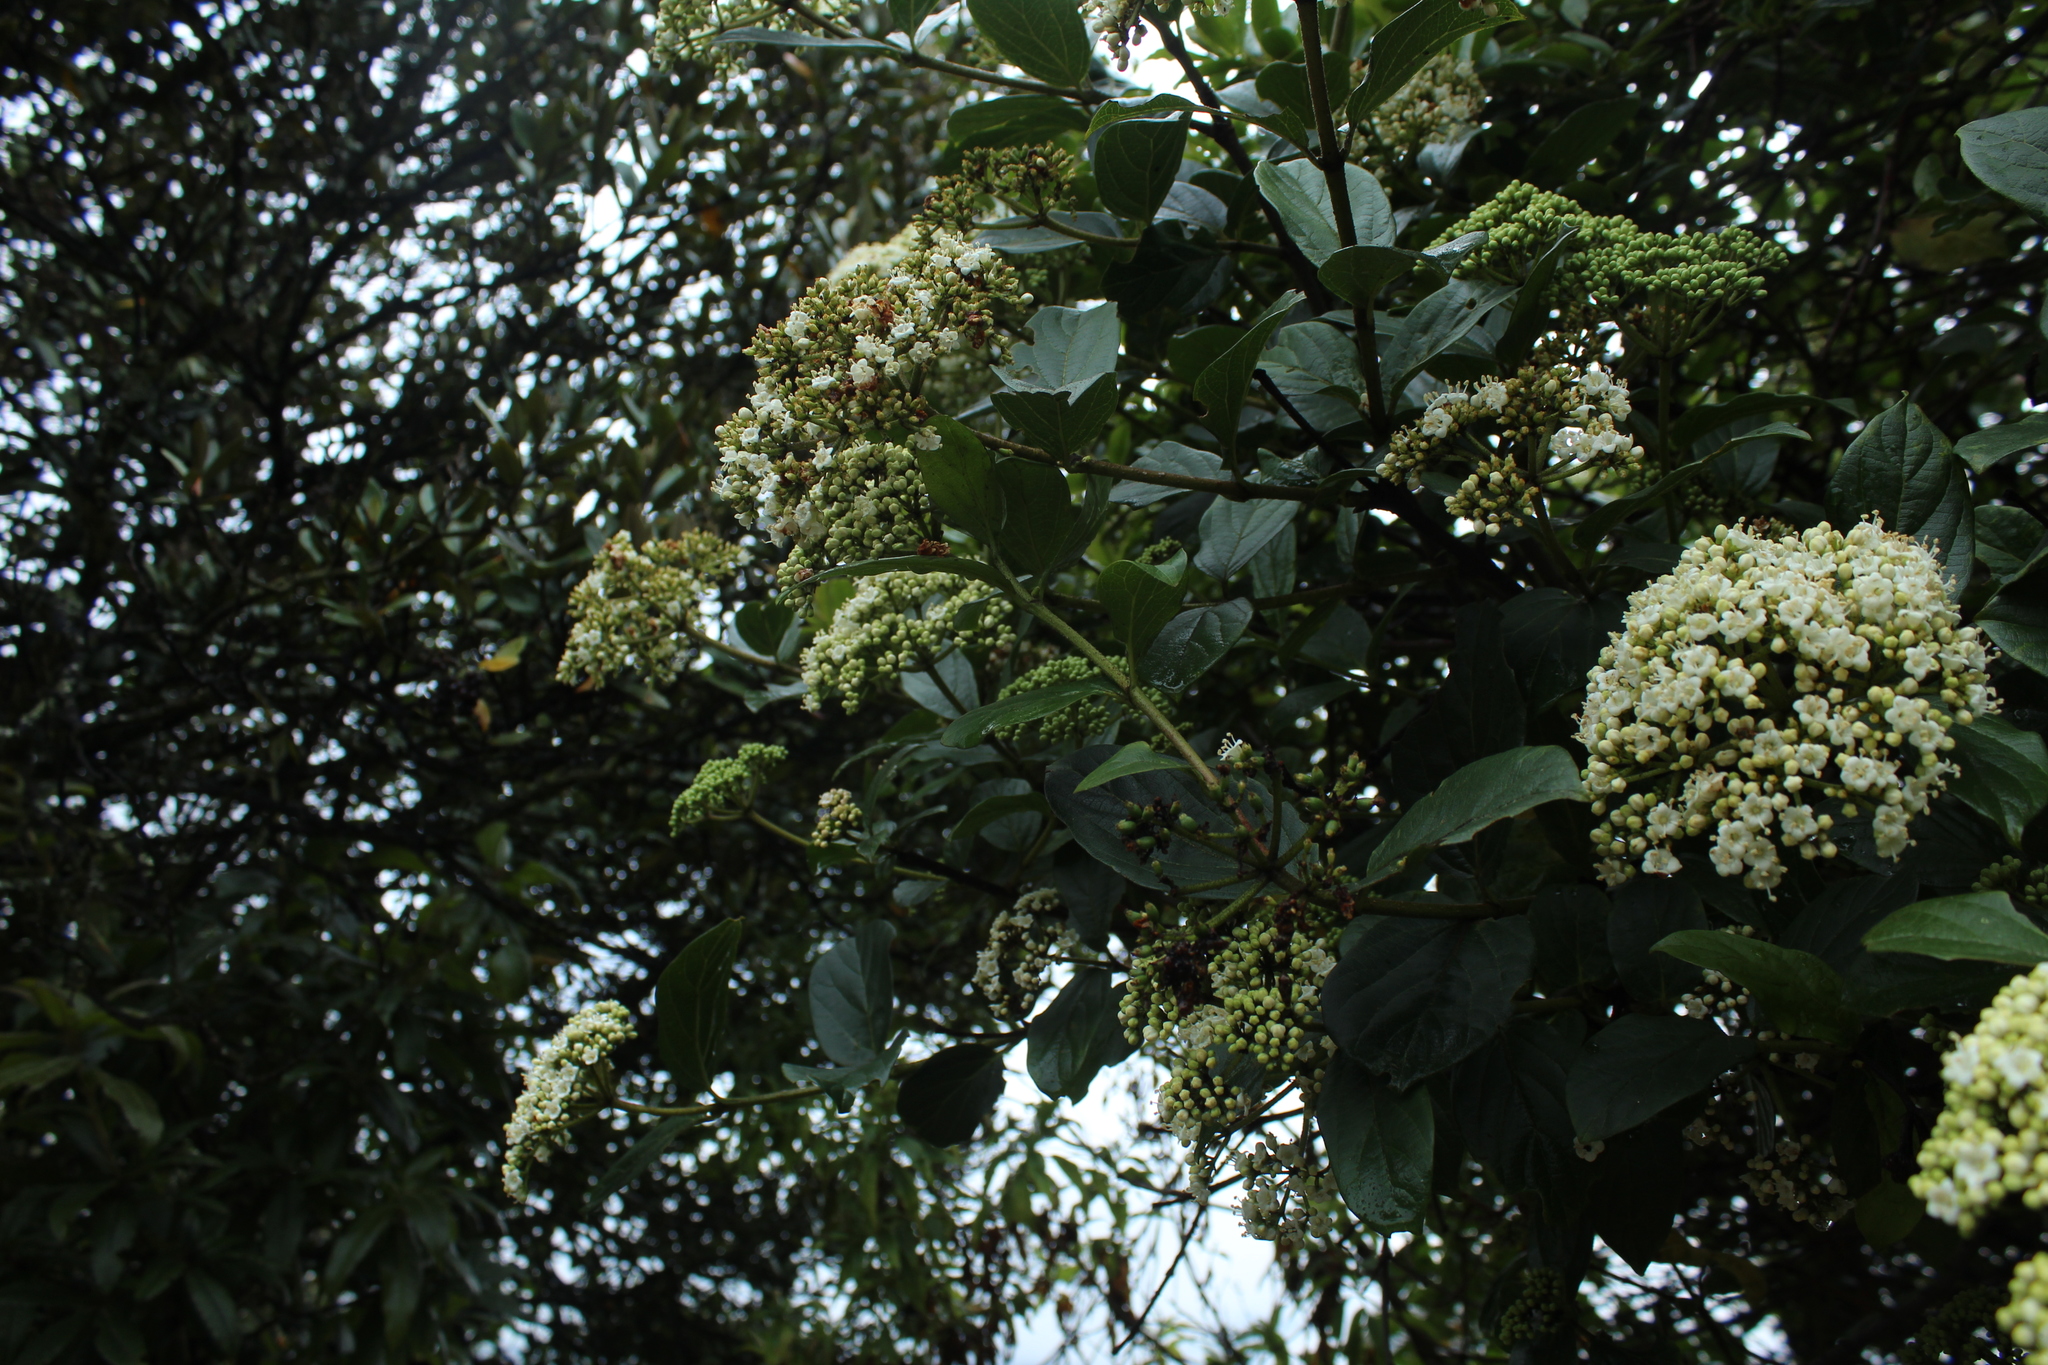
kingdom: Plantae
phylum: Tracheophyta
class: Magnoliopsida
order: Dipsacales
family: Viburnaceae
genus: Viburnum
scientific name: Viburnum tinoides
